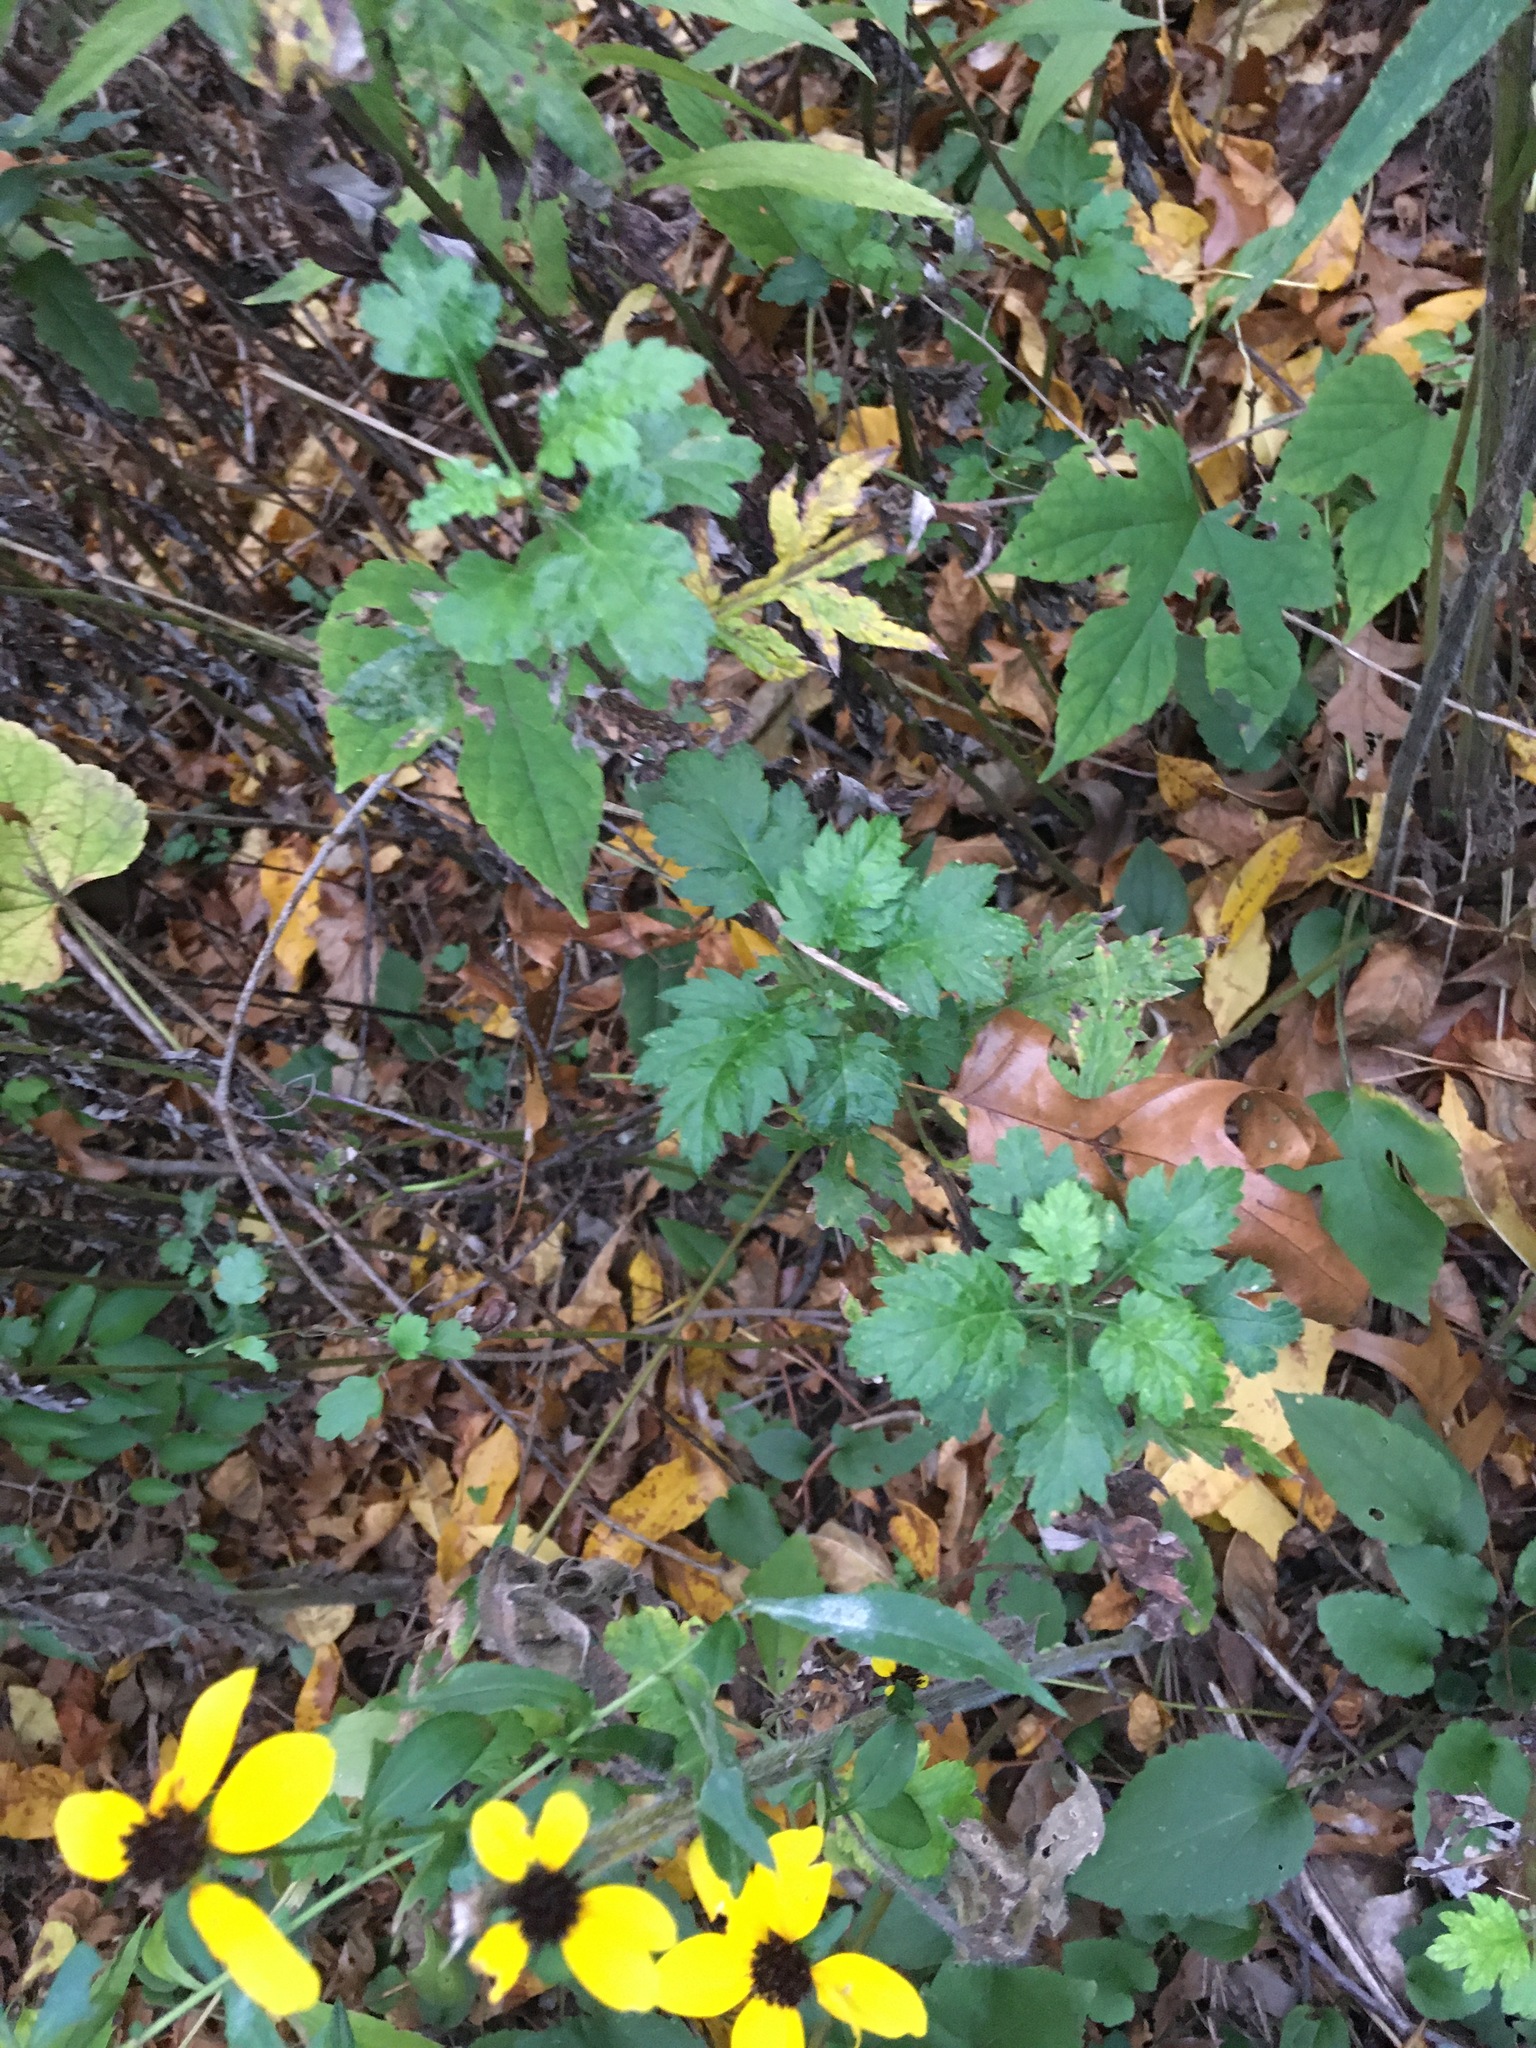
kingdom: Plantae
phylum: Tracheophyta
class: Magnoliopsida
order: Asterales
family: Asteraceae
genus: Artemisia
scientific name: Artemisia vulgaris
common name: Mugwort
